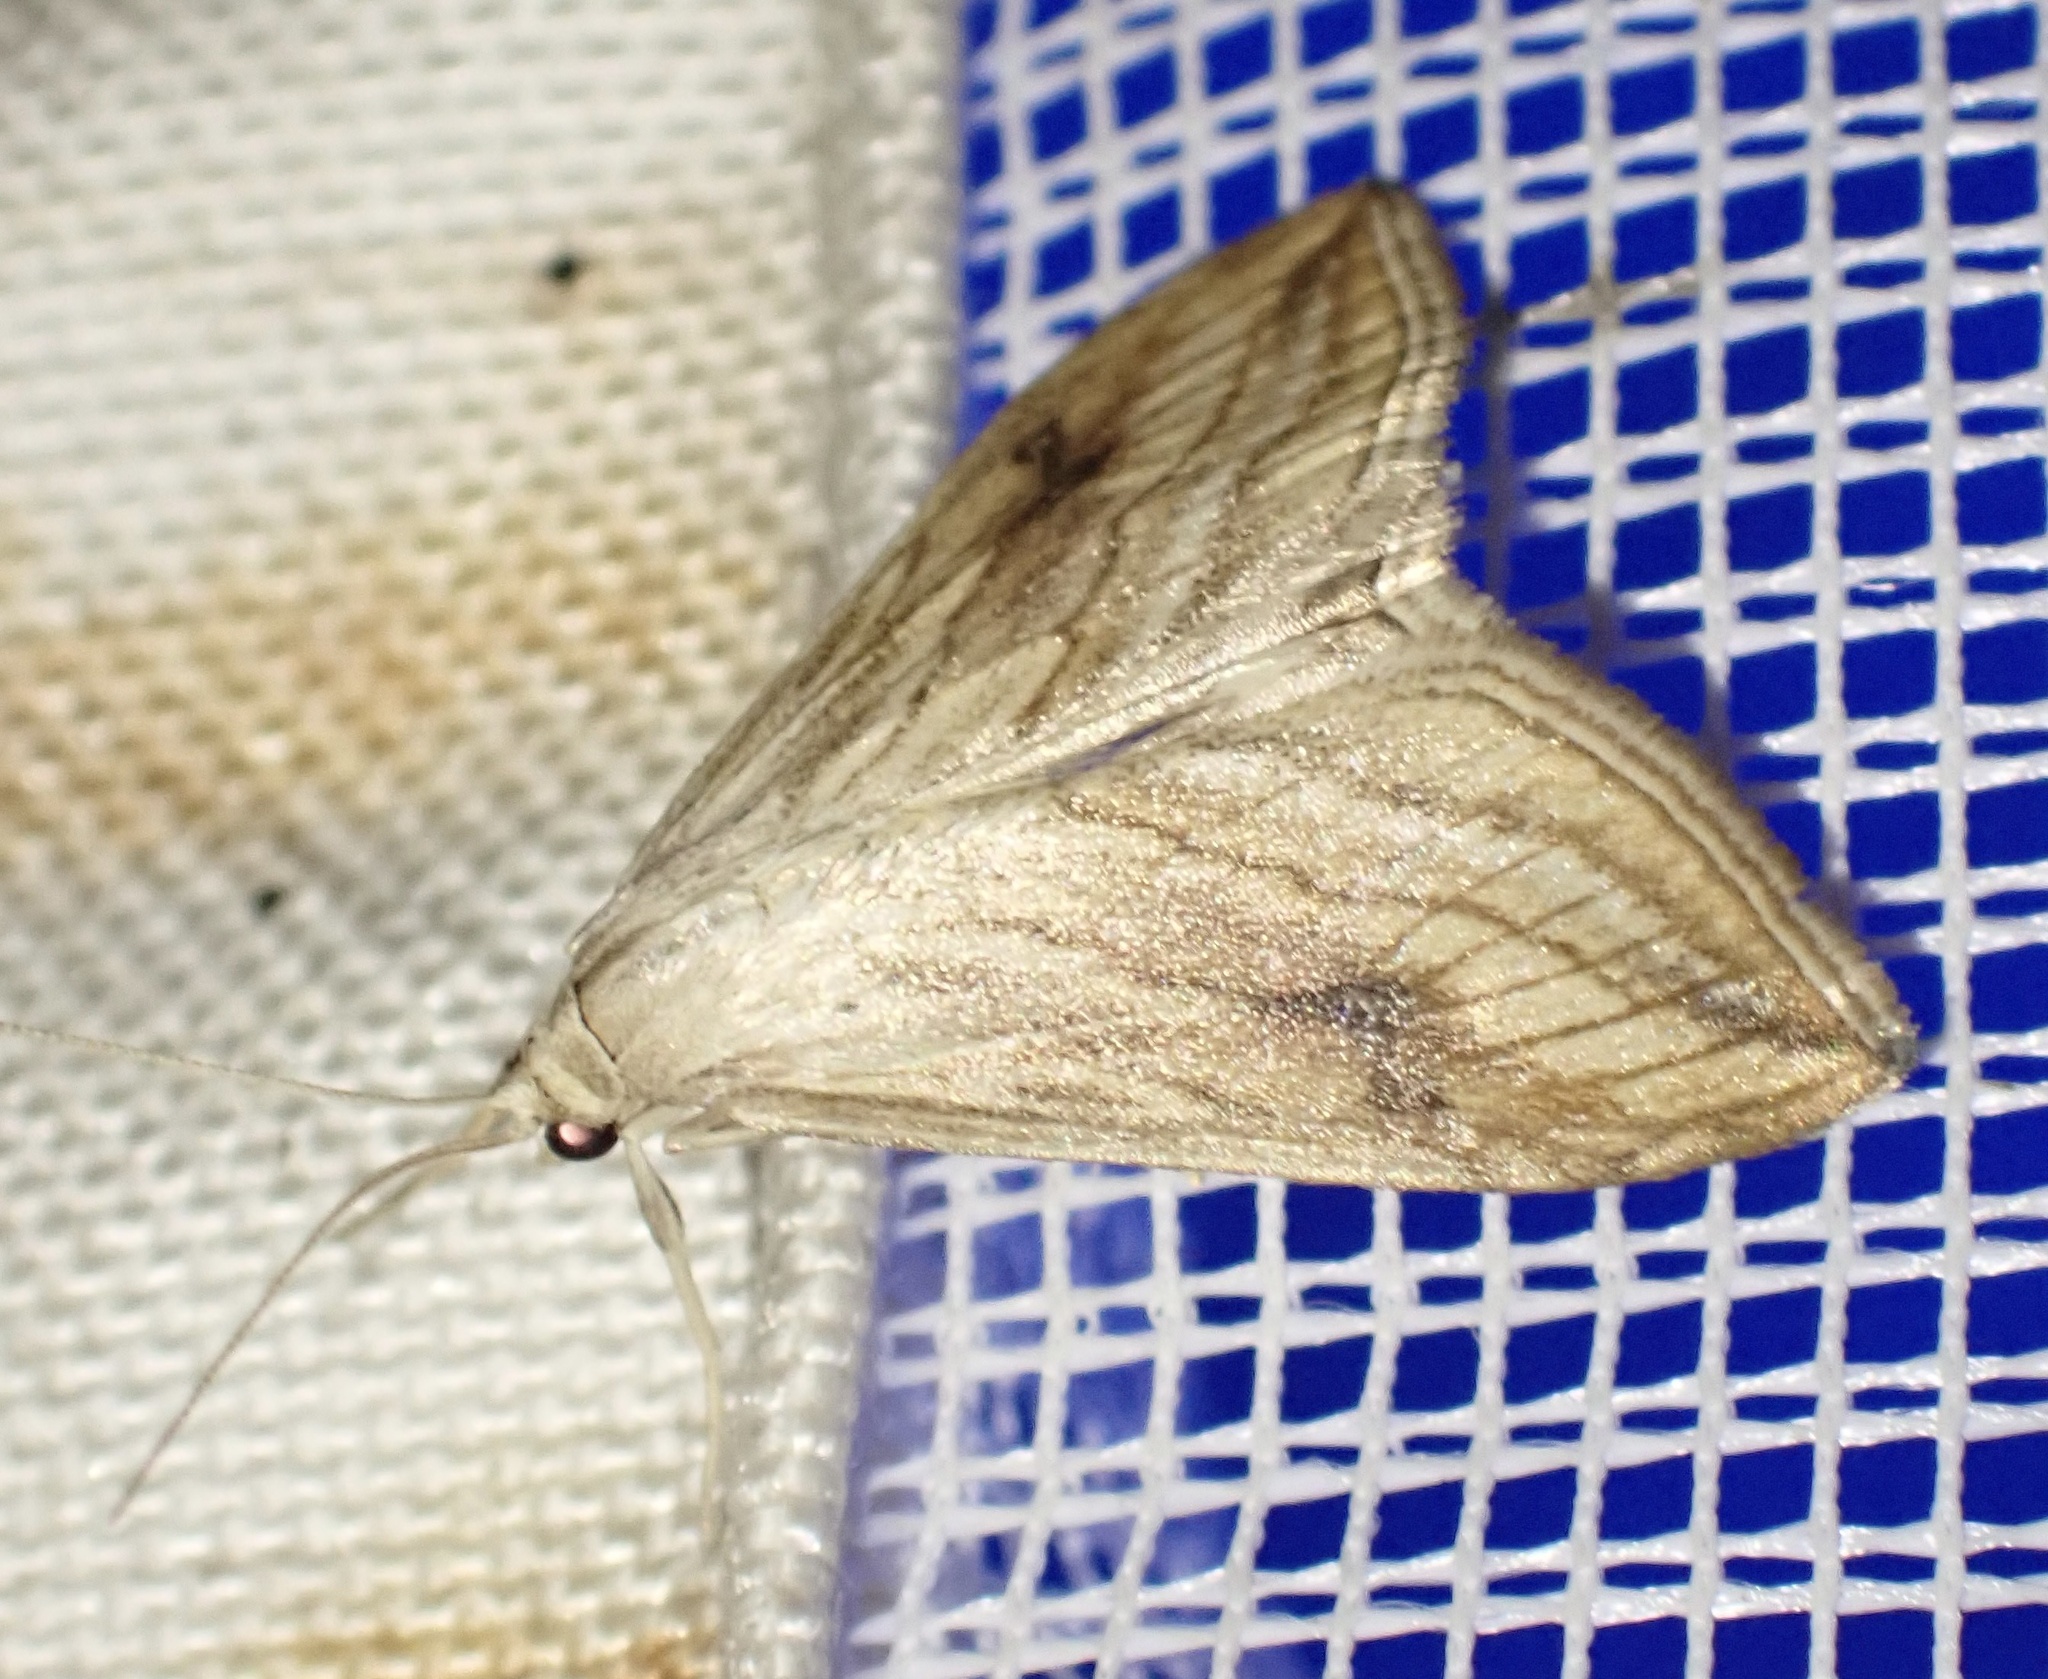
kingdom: Animalia
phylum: Arthropoda
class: Insecta
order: Lepidoptera
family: Crambidae
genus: Evergestis
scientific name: Evergestis forficalis
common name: Garden pebble
